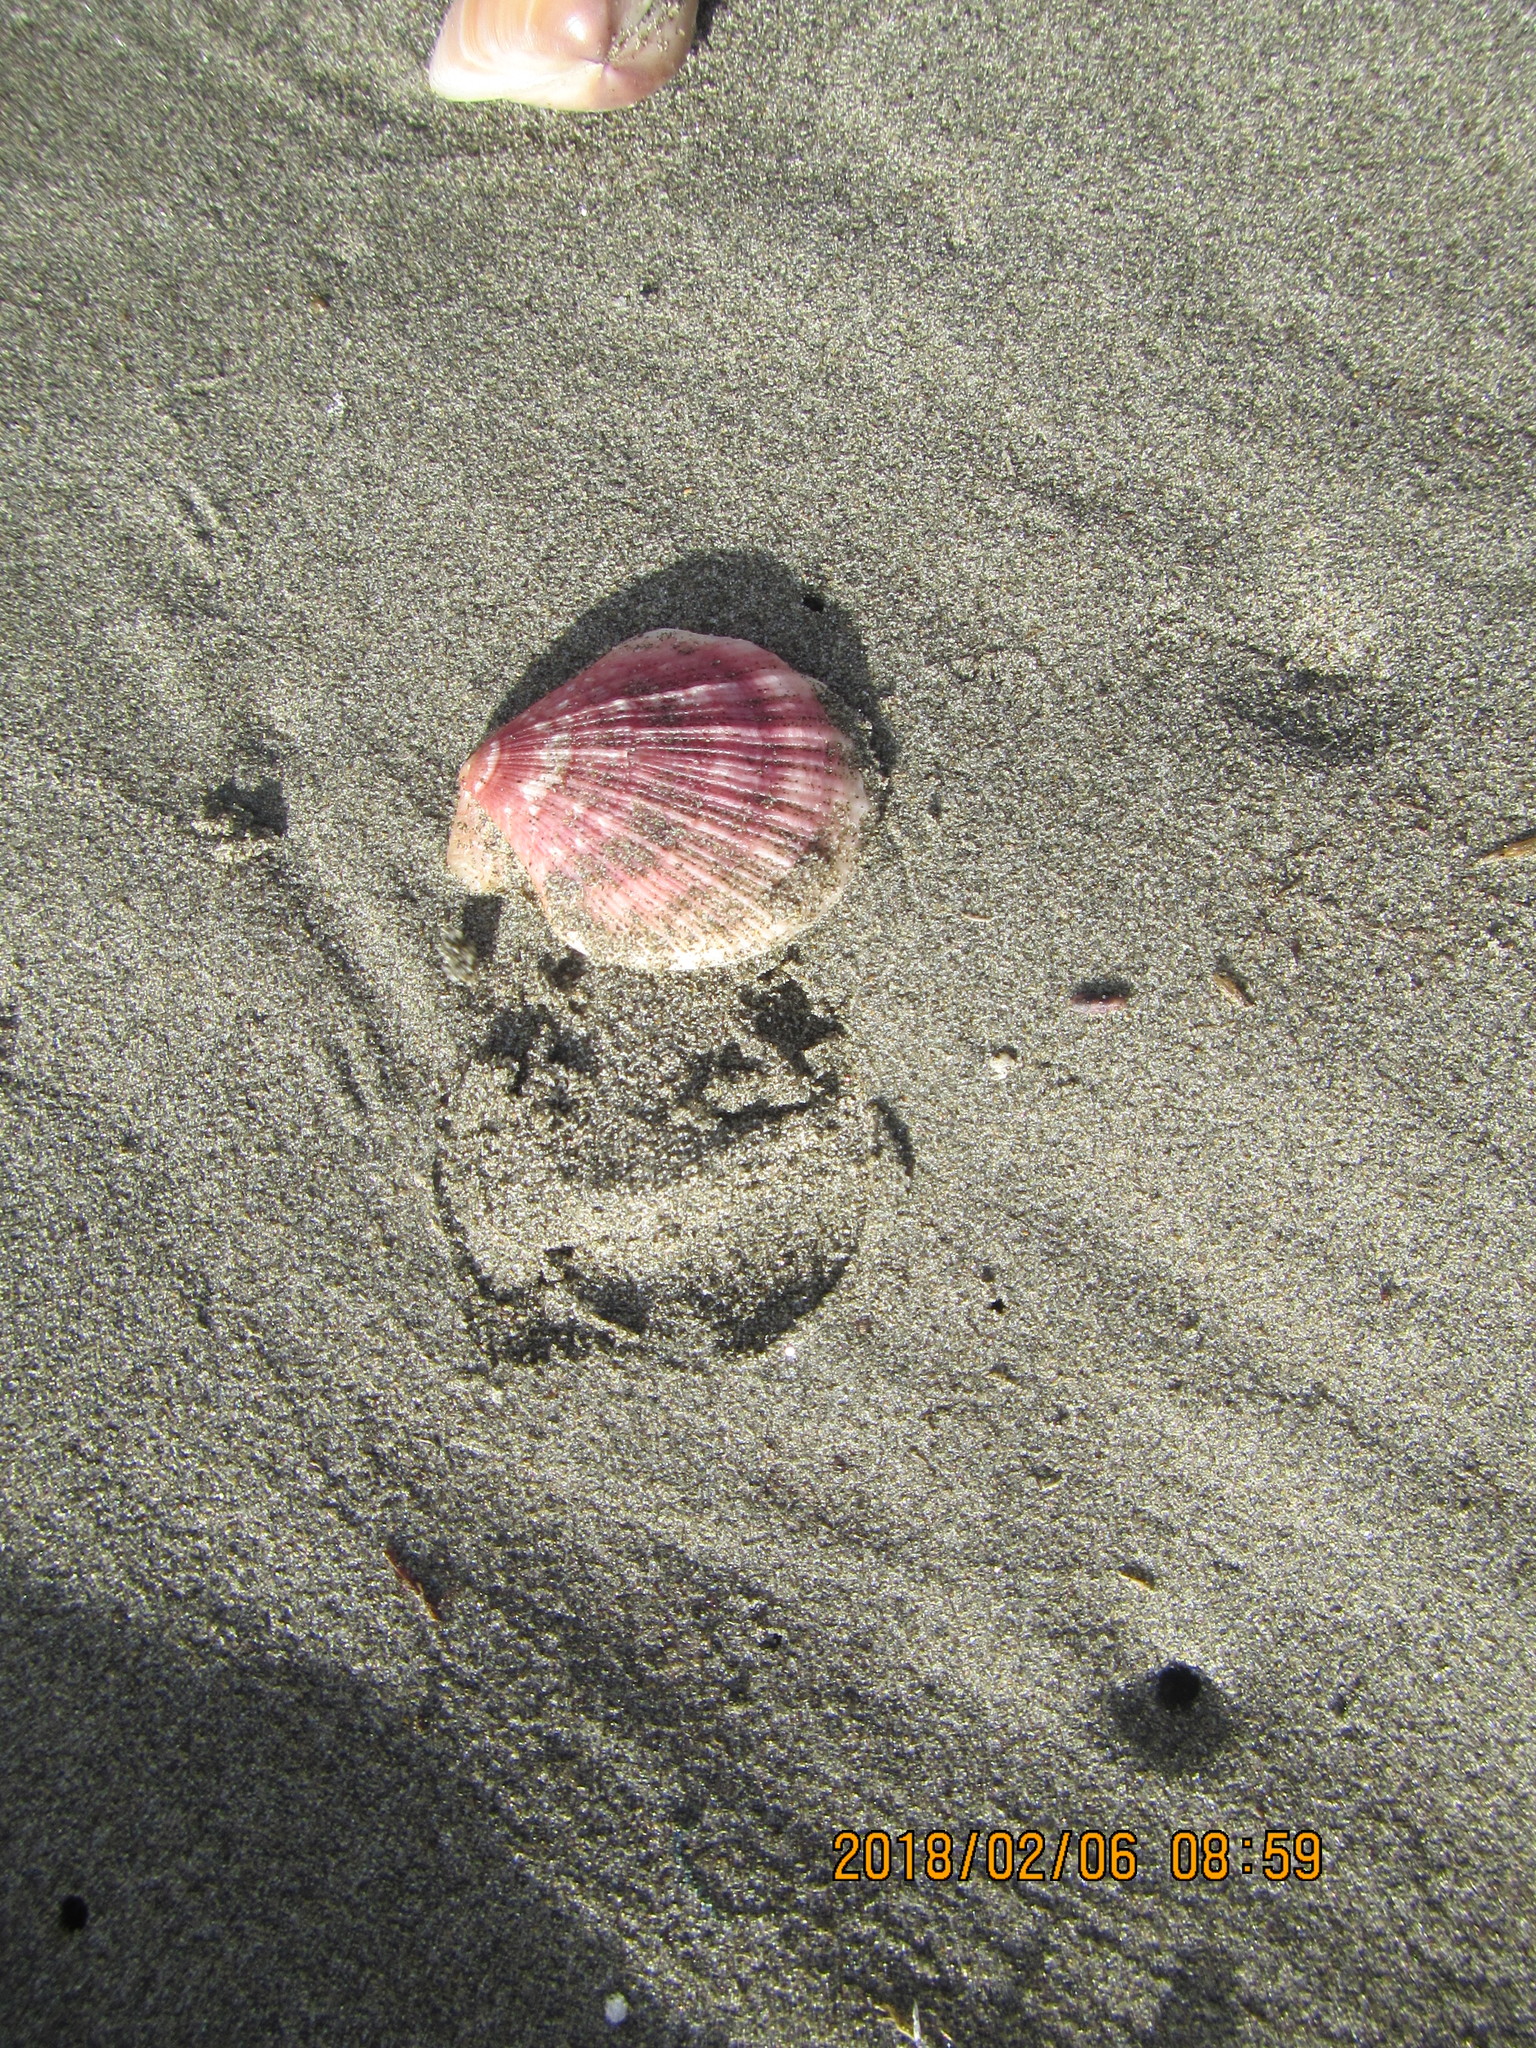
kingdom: Animalia
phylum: Mollusca
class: Bivalvia
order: Pectinida
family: Pectinidae
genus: Talochlamys
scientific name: Talochlamys zelandiae
